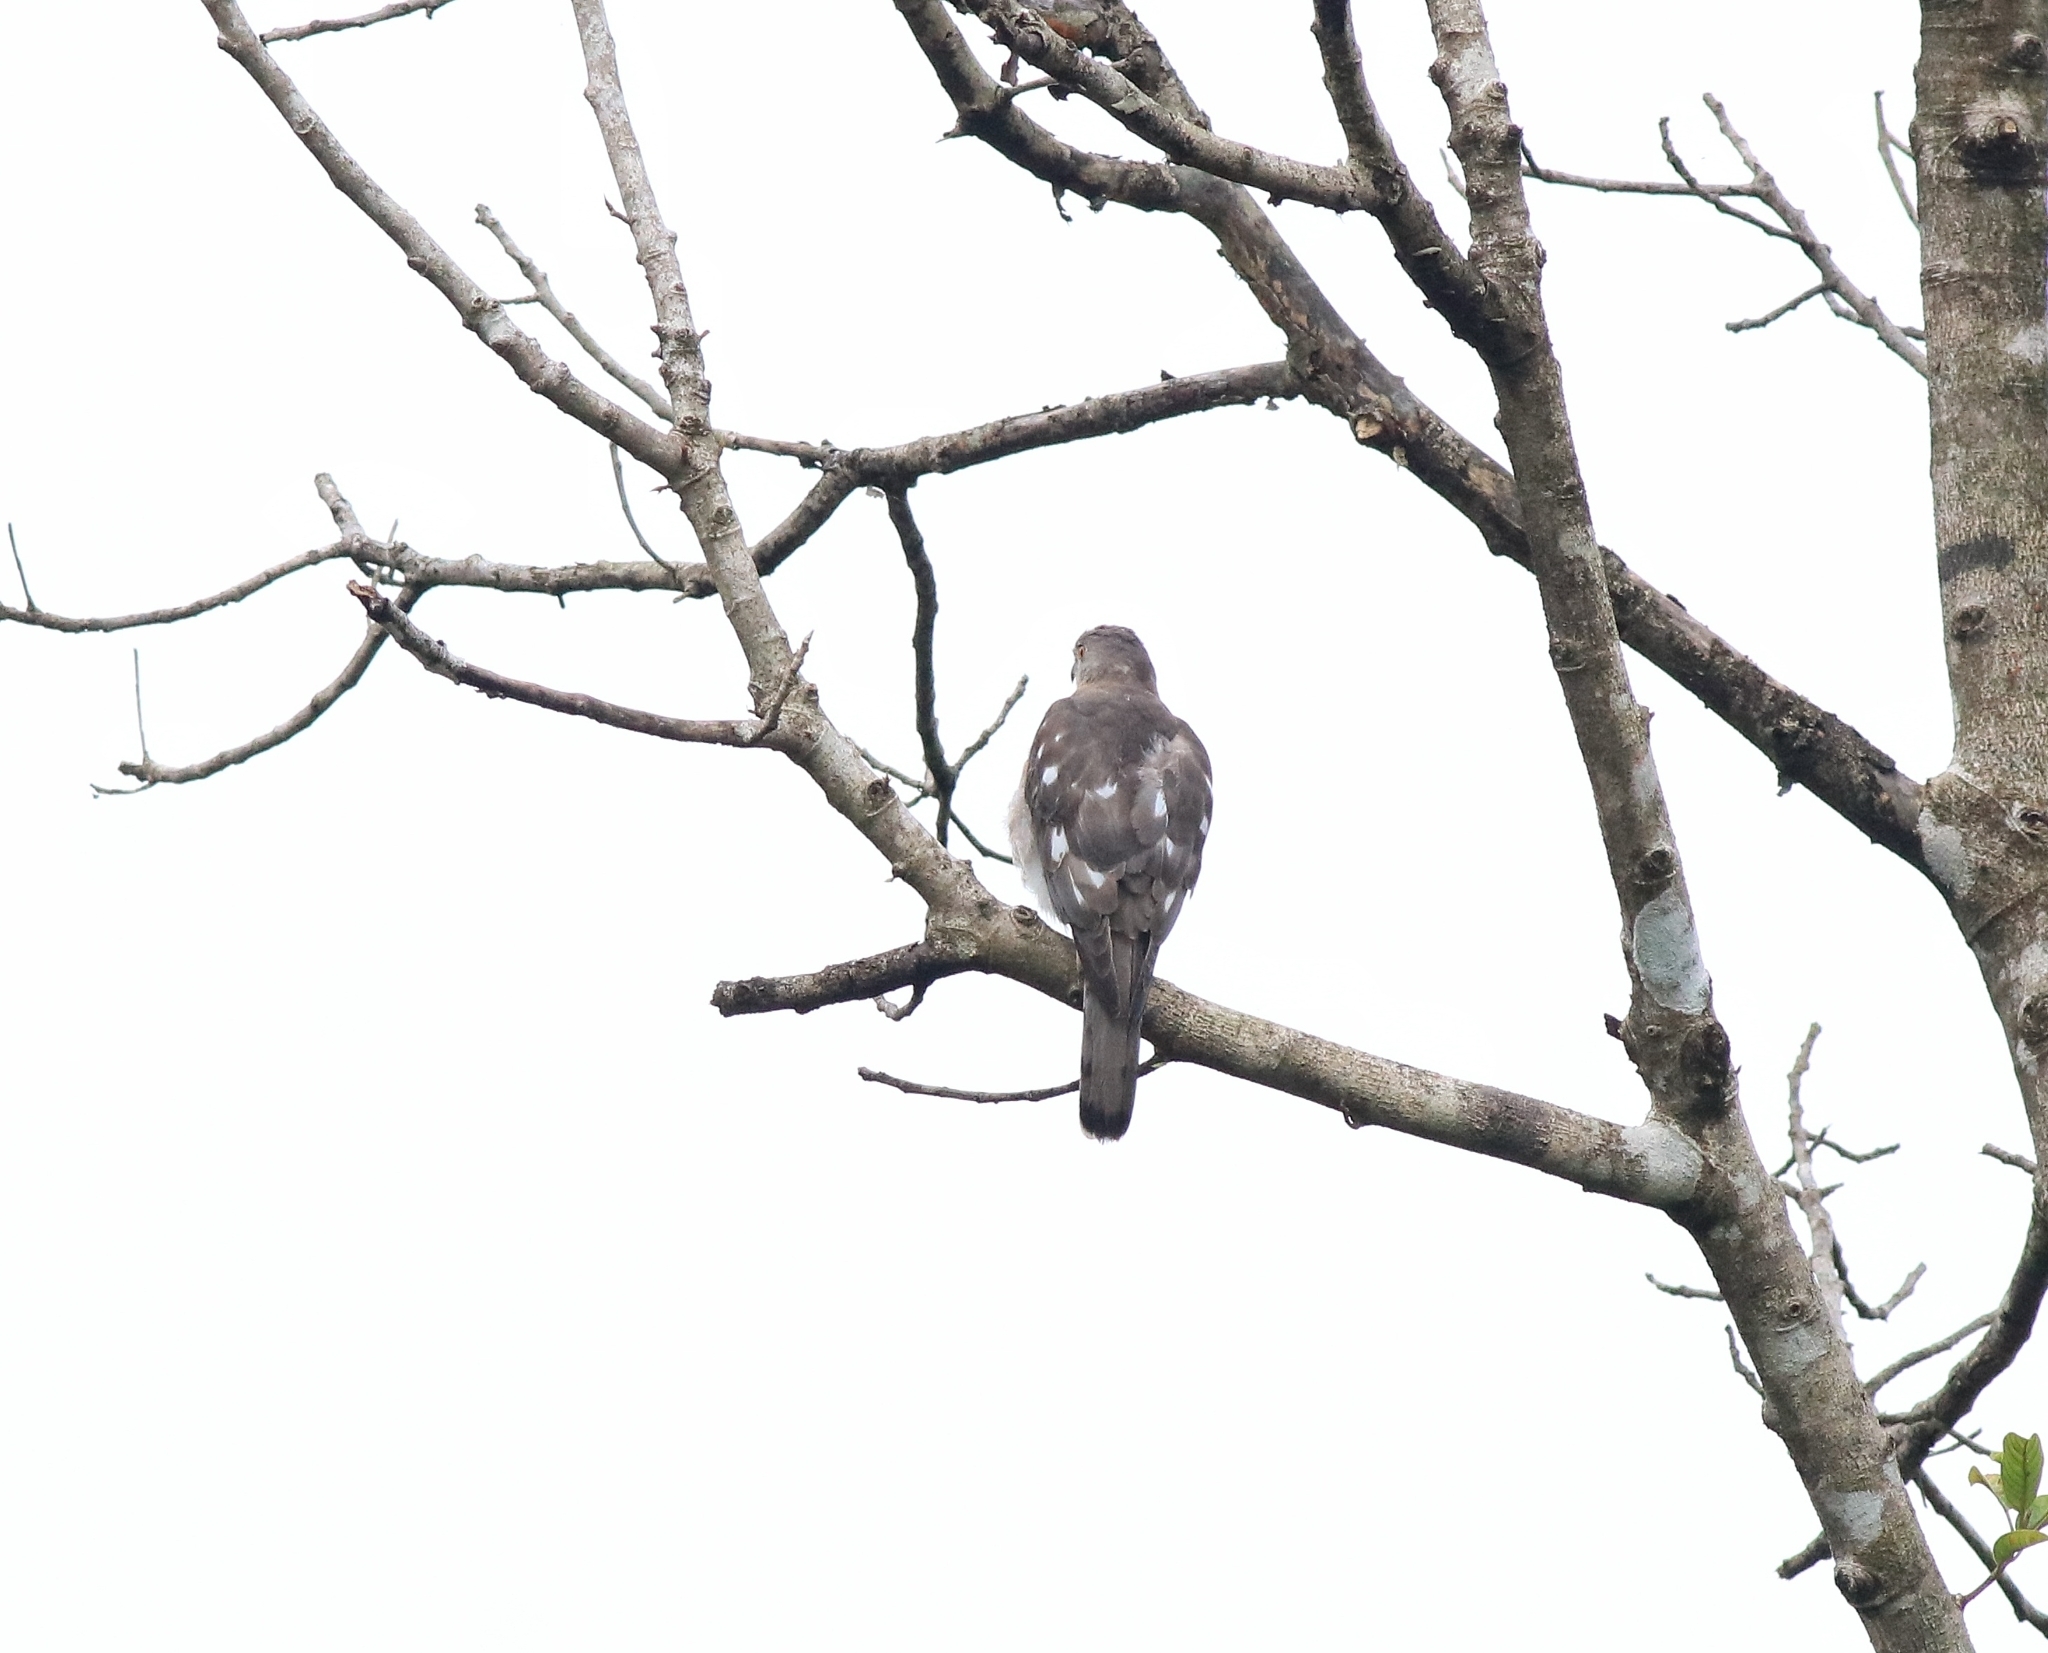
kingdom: Animalia
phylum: Chordata
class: Aves
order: Accipitriformes
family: Accipitridae
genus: Accipiter
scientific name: Accipiter badius
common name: Shikra
